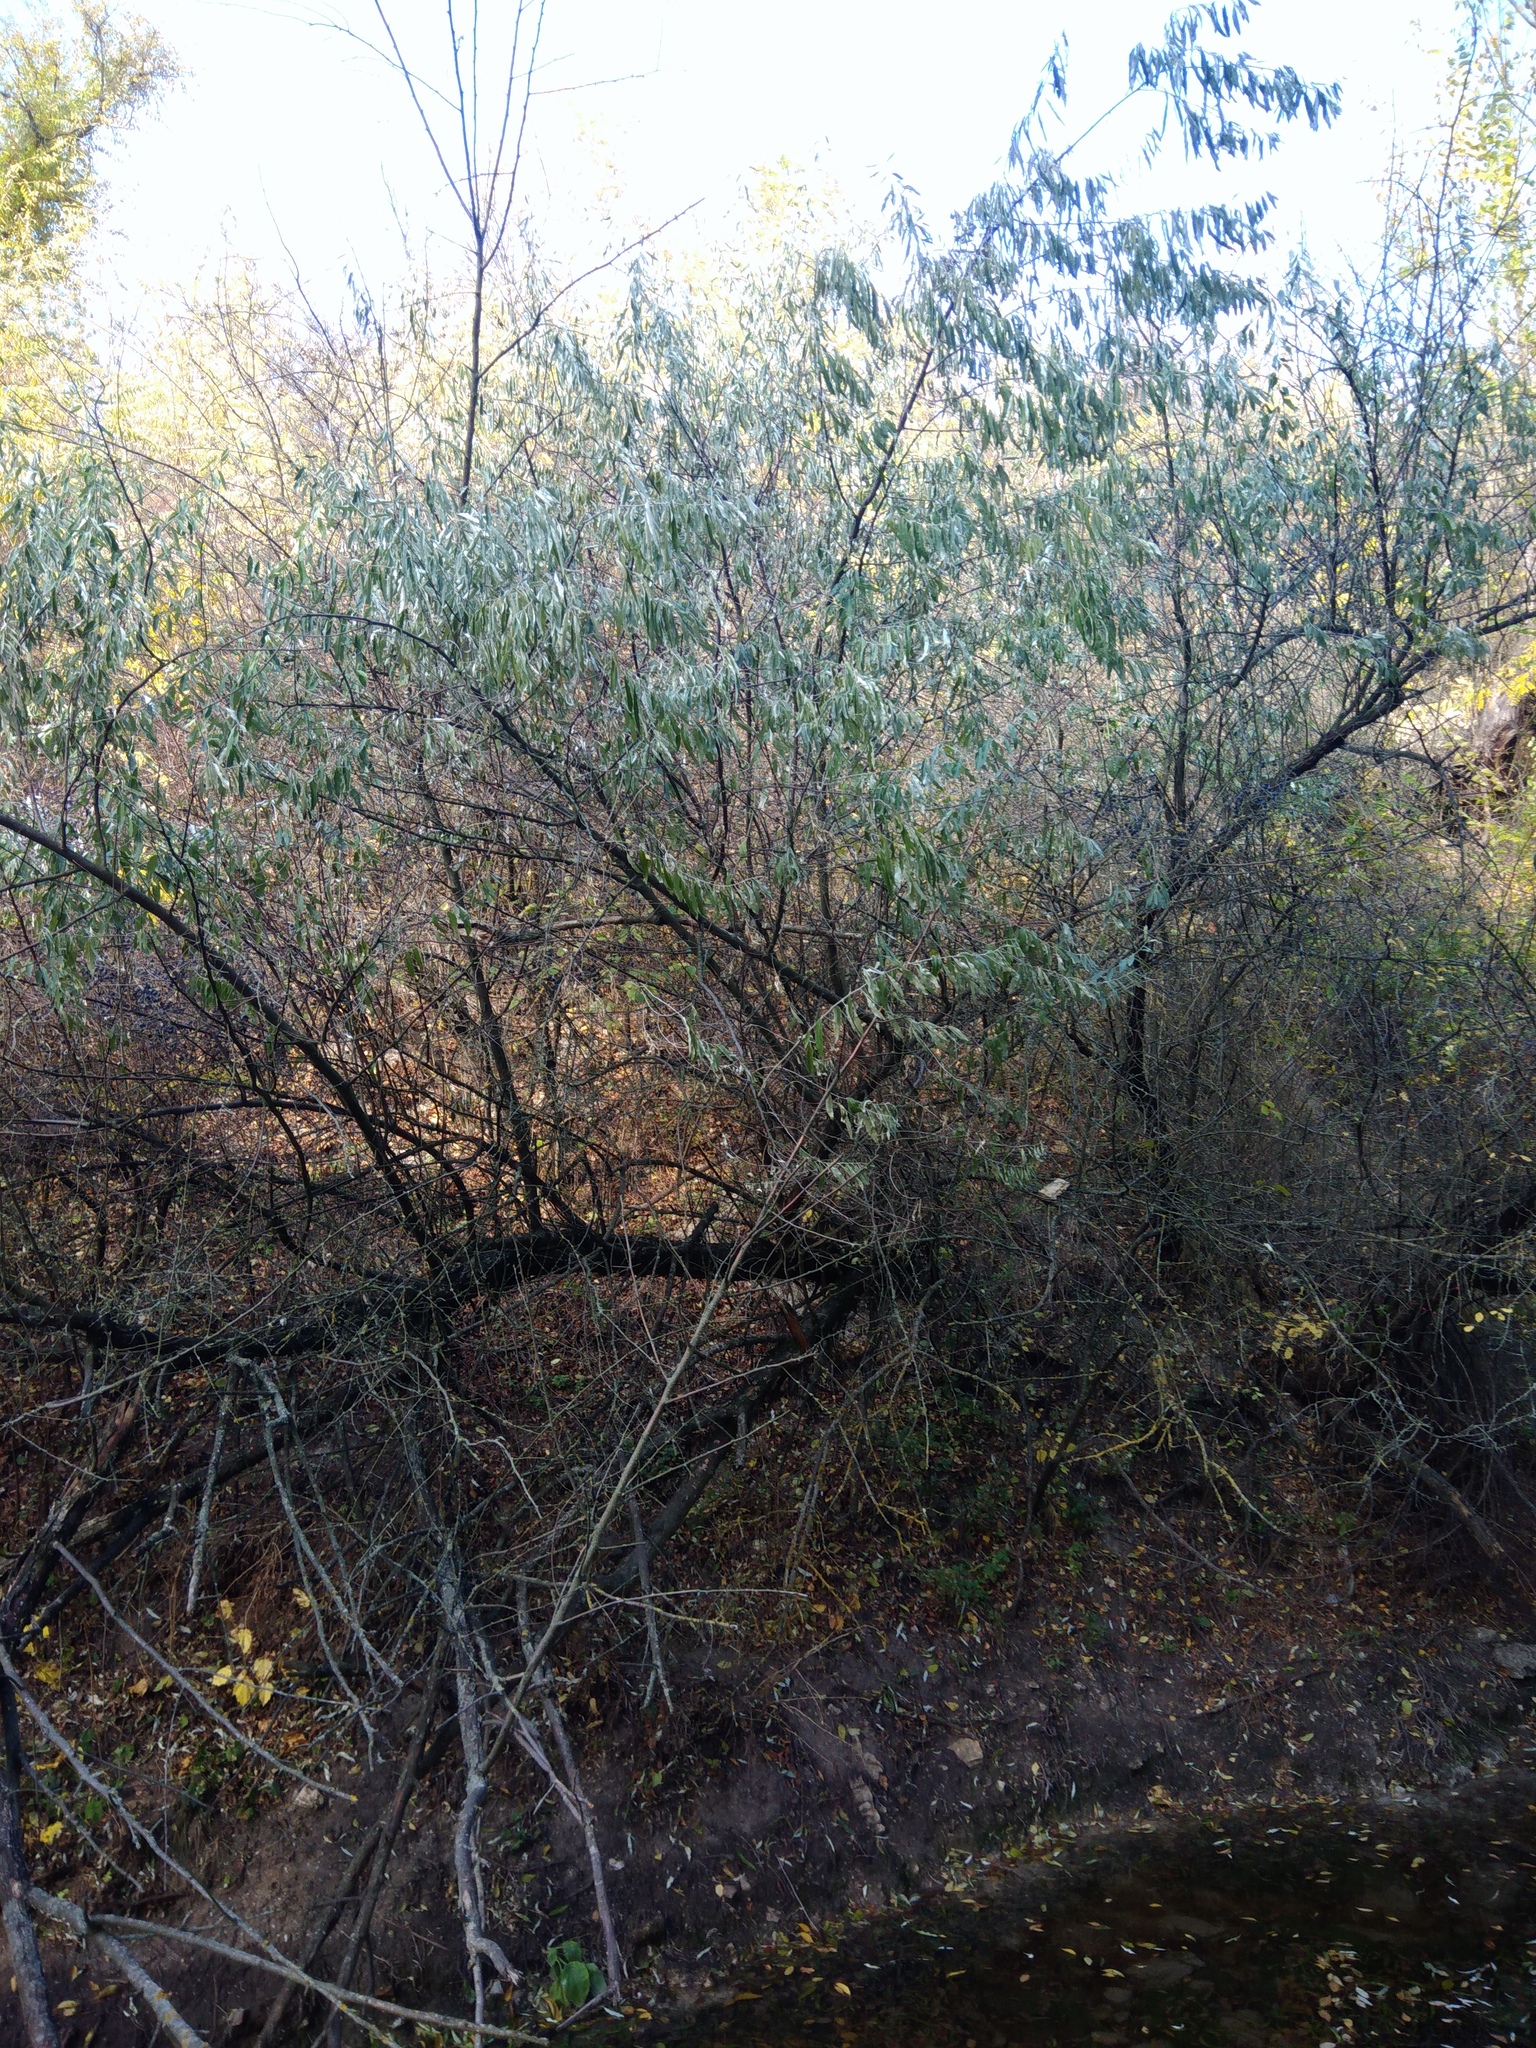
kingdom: Plantae
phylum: Tracheophyta
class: Magnoliopsida
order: Rosales
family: Elaeagnaceae
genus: Elaeagnus
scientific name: Elaeagnus angustifolia
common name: Russian olive
